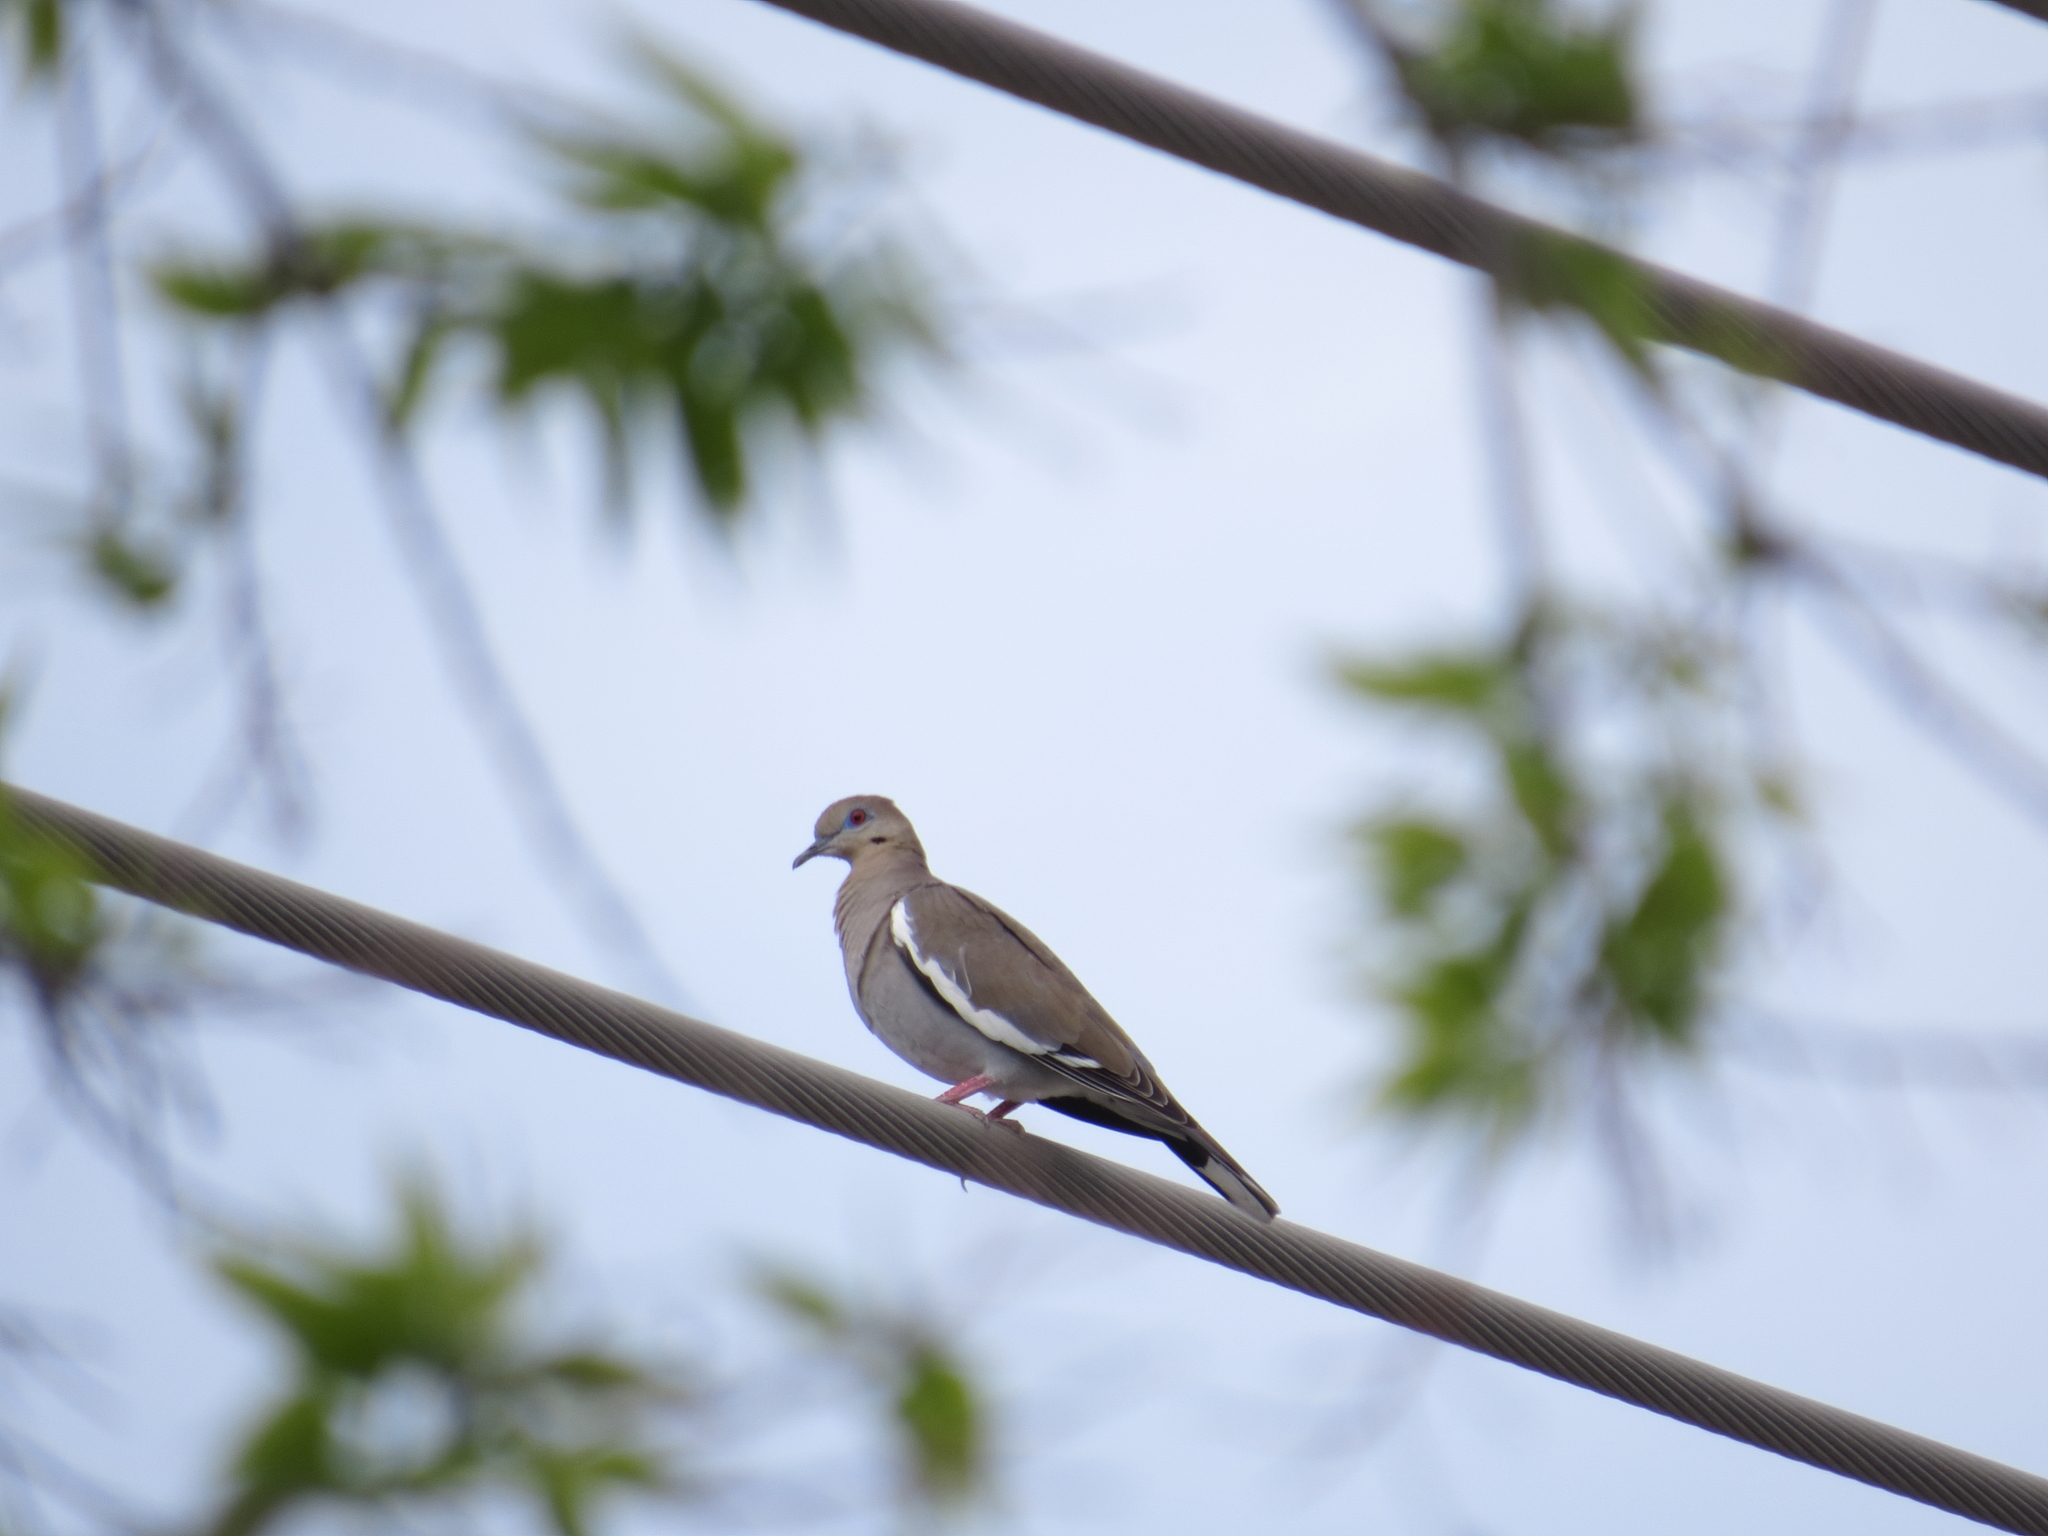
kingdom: Animalia
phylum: Chordata
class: Aves
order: Columbiformes
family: Columbidae
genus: Zenaida
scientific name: Zenaida asiatica
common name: White-winged dove
